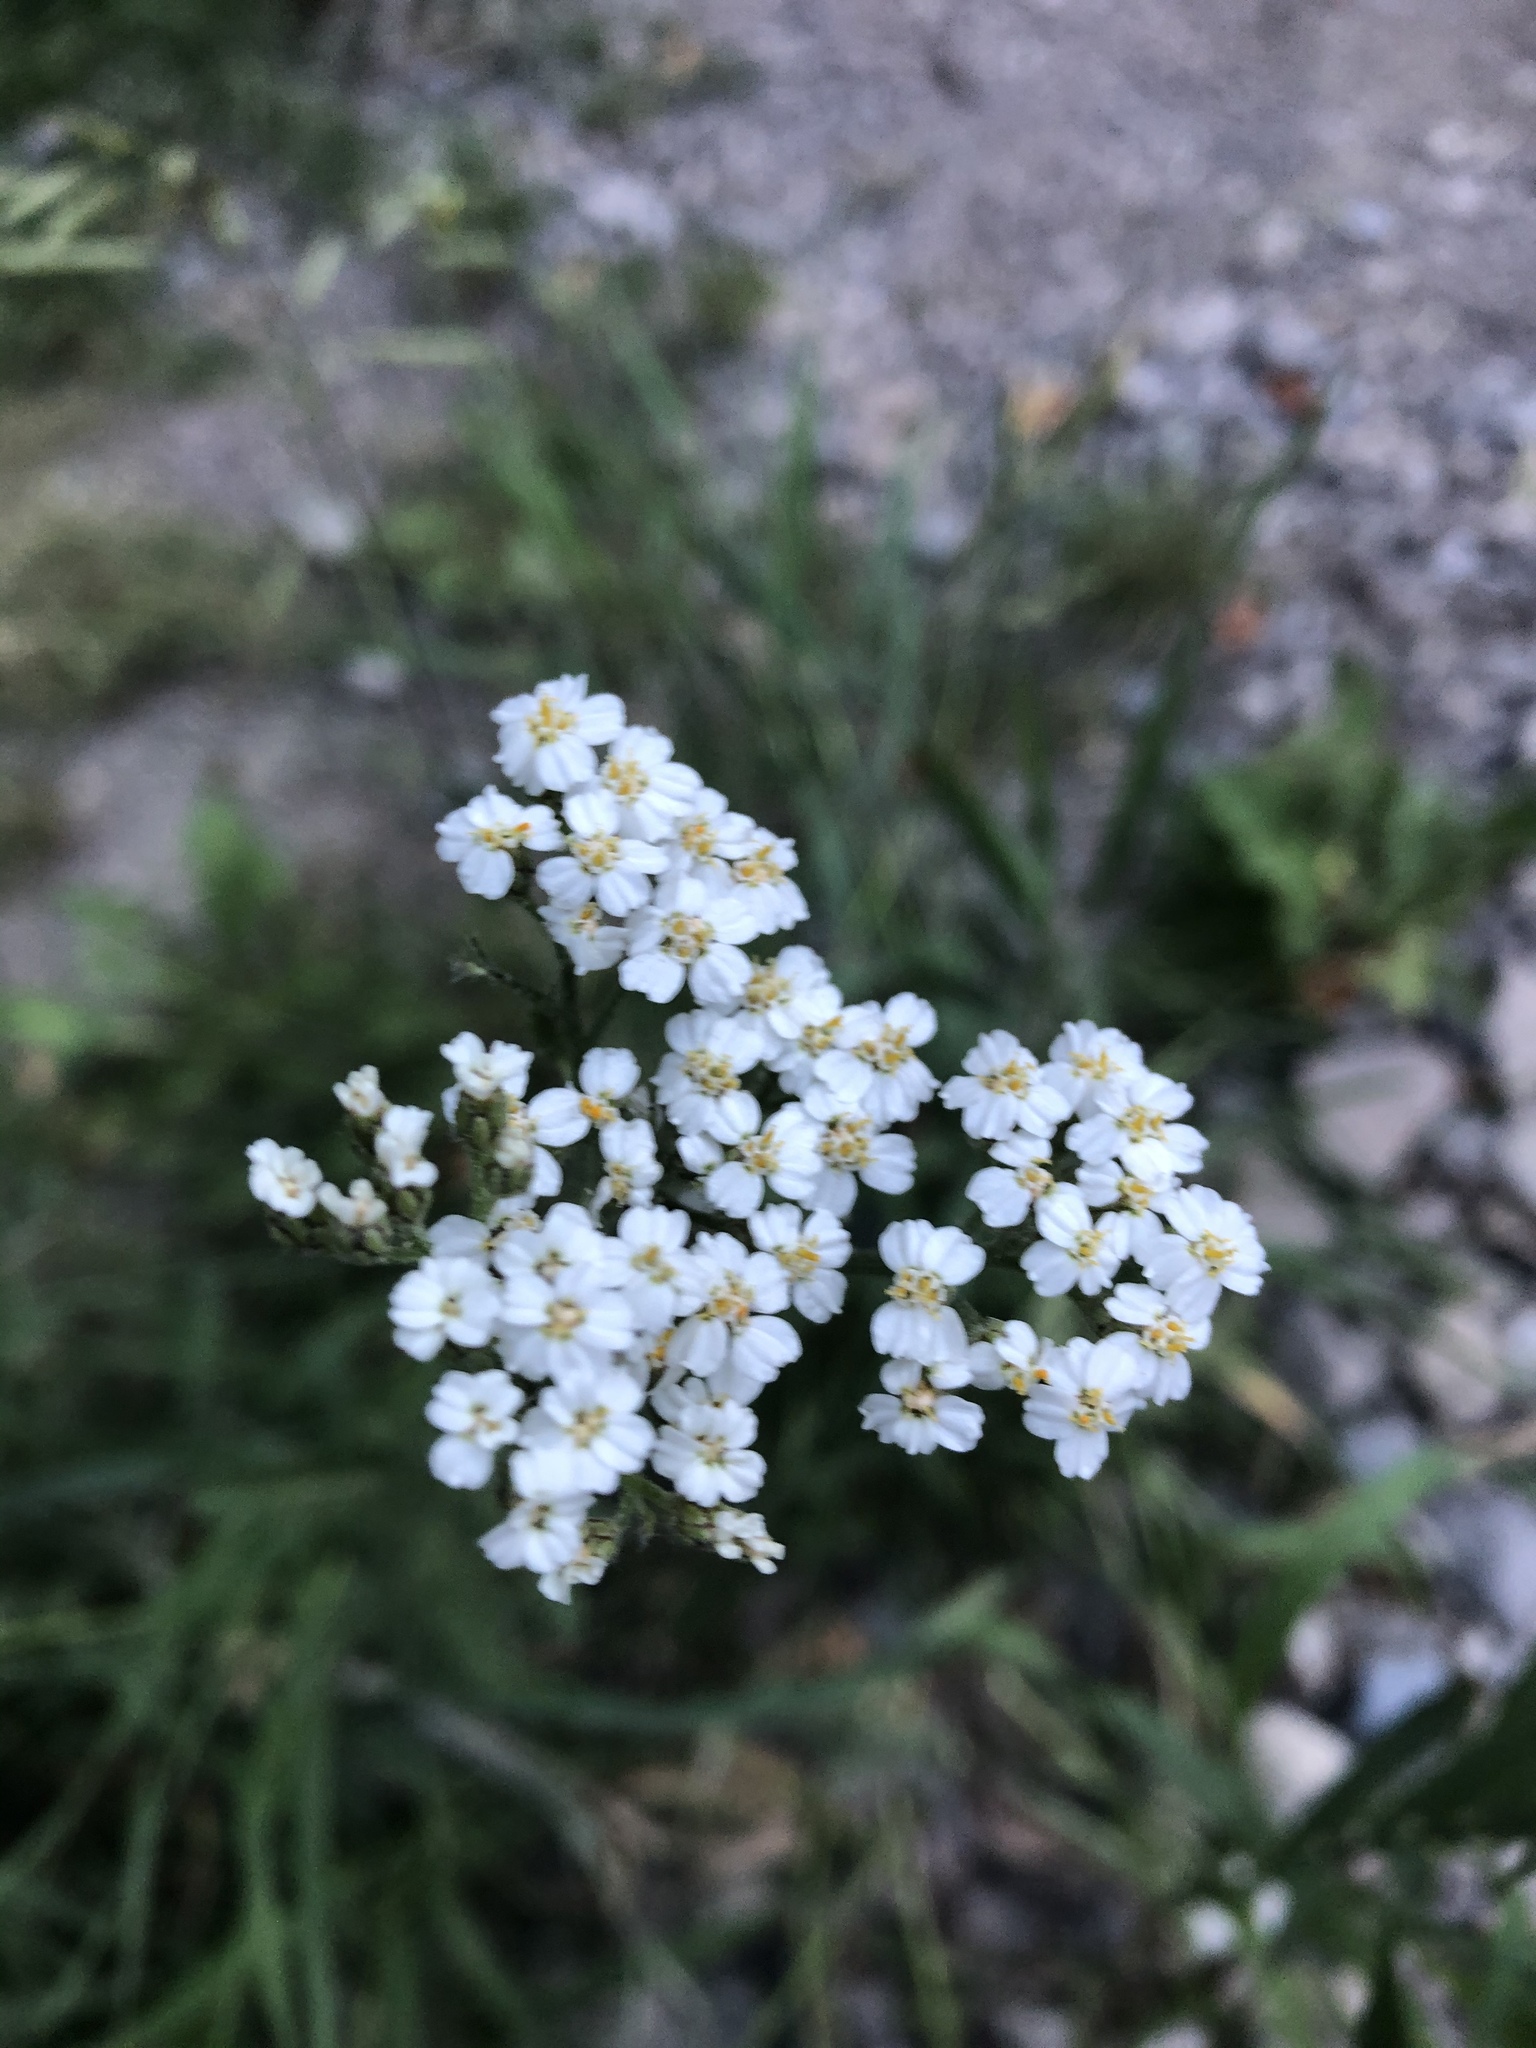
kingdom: Plantae
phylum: Tracheophyta
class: Magnoliopsida
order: Asterales
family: Asteraceae
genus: Achillea
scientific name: Achillea millefolium
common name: Yarrow
